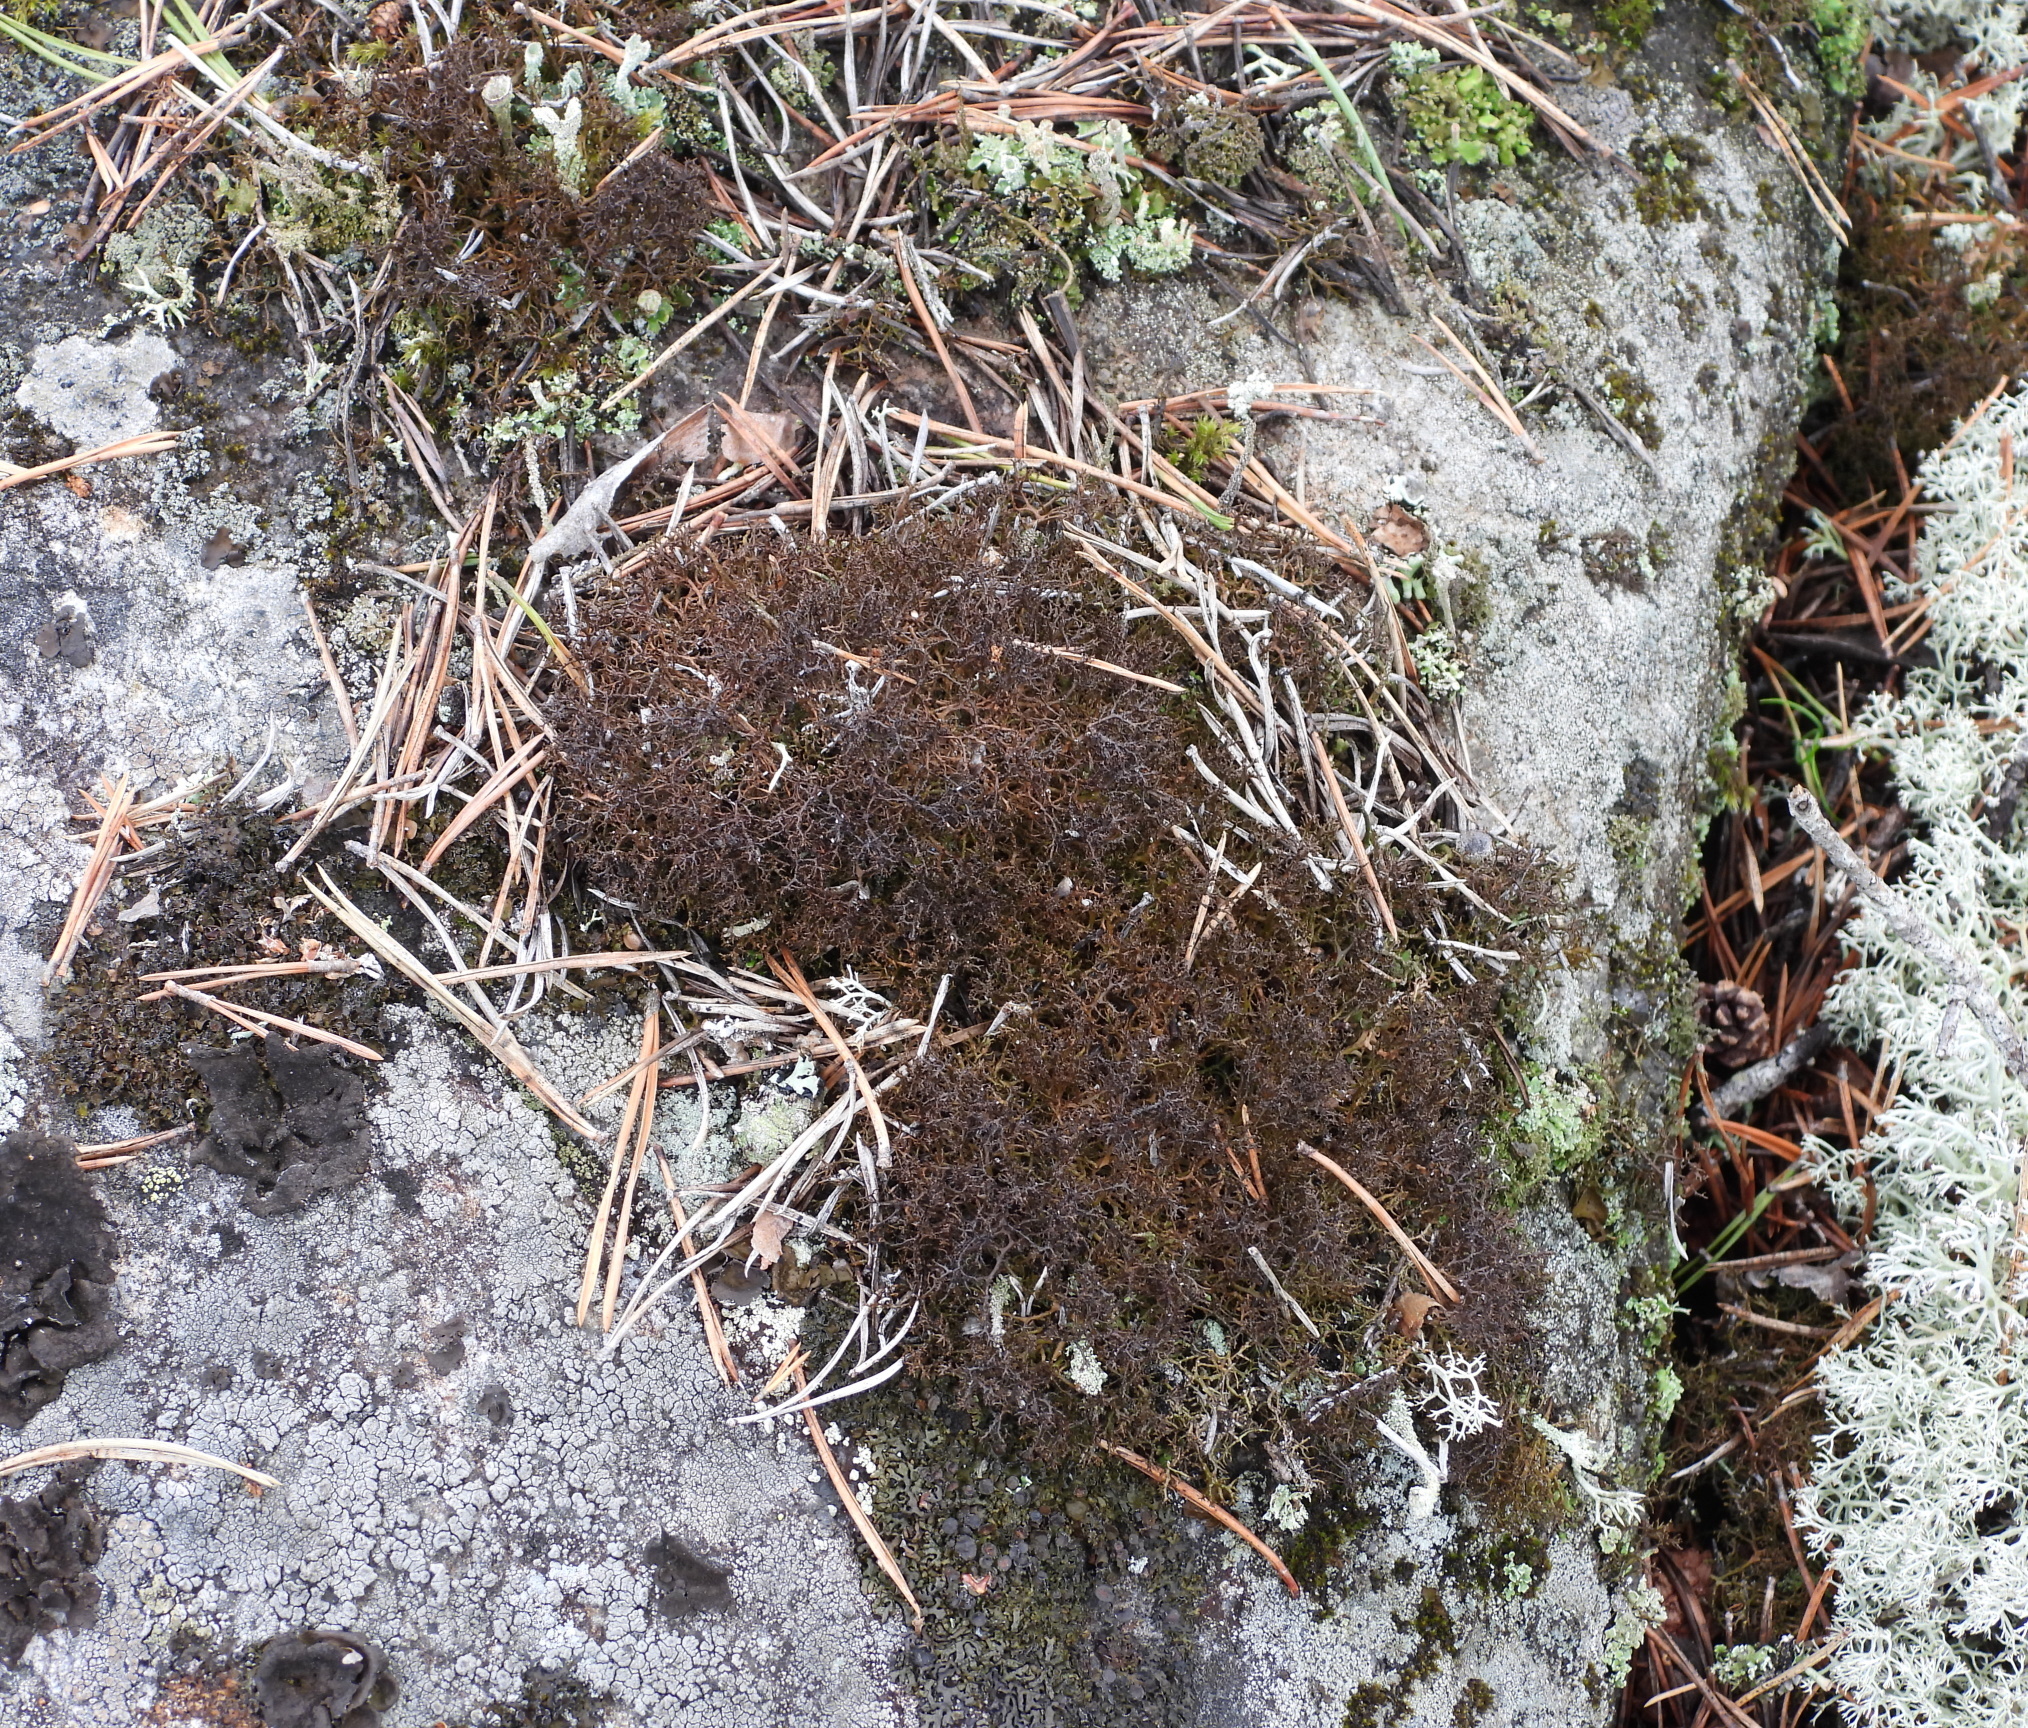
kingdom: Fungi
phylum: Ascomycota
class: Lecanoromycetes
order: Lecanorales
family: Parmeliaceae
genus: Cetraria
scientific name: Cetraria muricata
